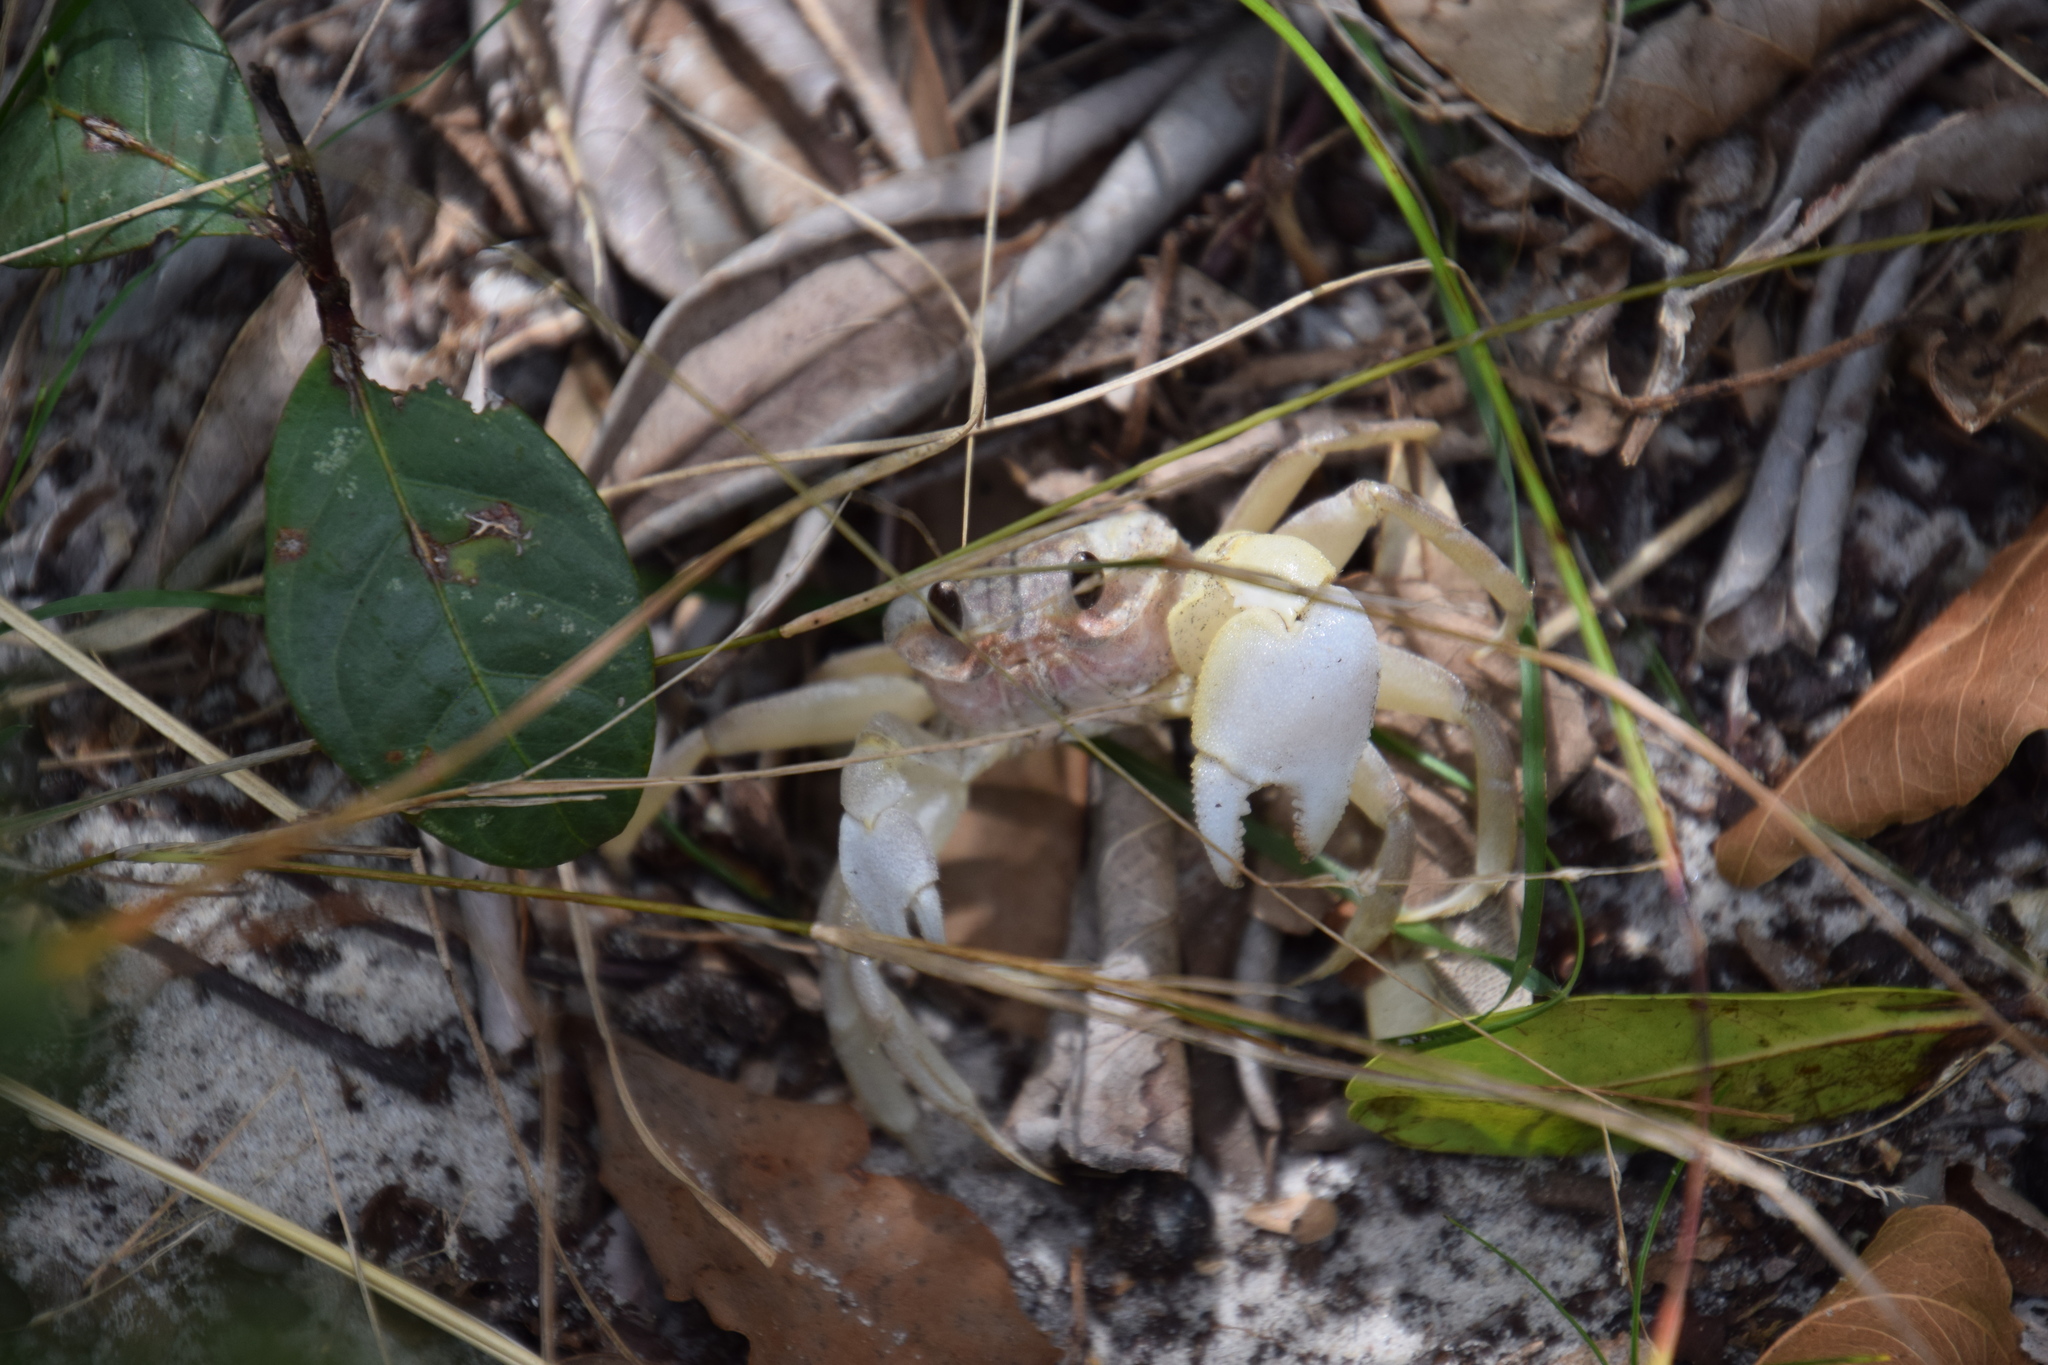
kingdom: Animalia
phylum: Arthropoda
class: Malacostraca
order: Decapoda
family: Ocypodidae
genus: Ocypode
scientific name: Ocypode cordimana
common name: Smooth-eyed ghost crab
